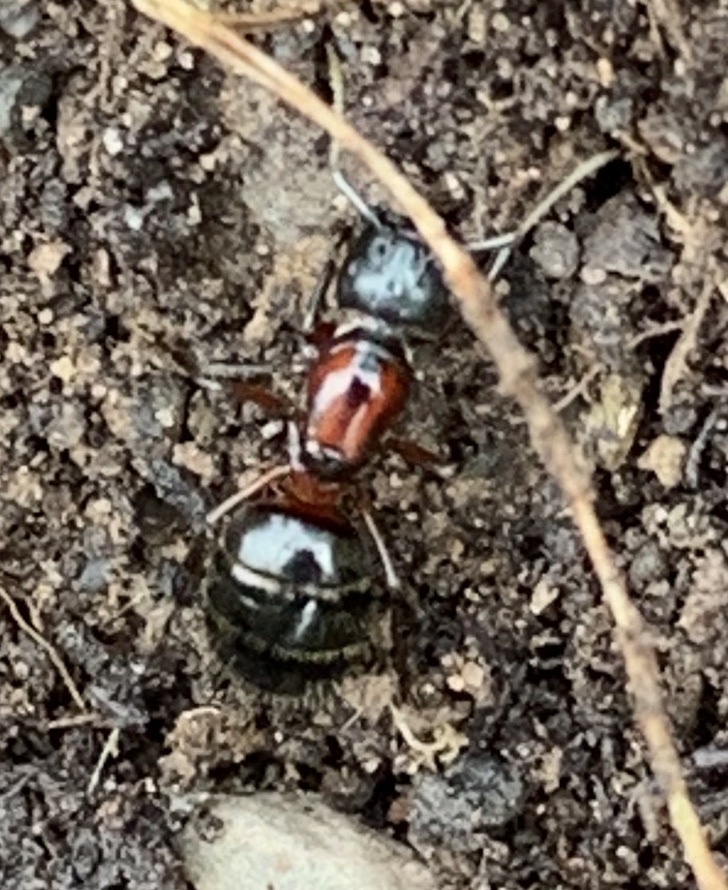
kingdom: Animalia
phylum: Arthropoda
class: Insecta
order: Hymenoptera
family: Formicidae
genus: Camponotus
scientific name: Camponotus novaeboracensis
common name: New york carpenter ant
